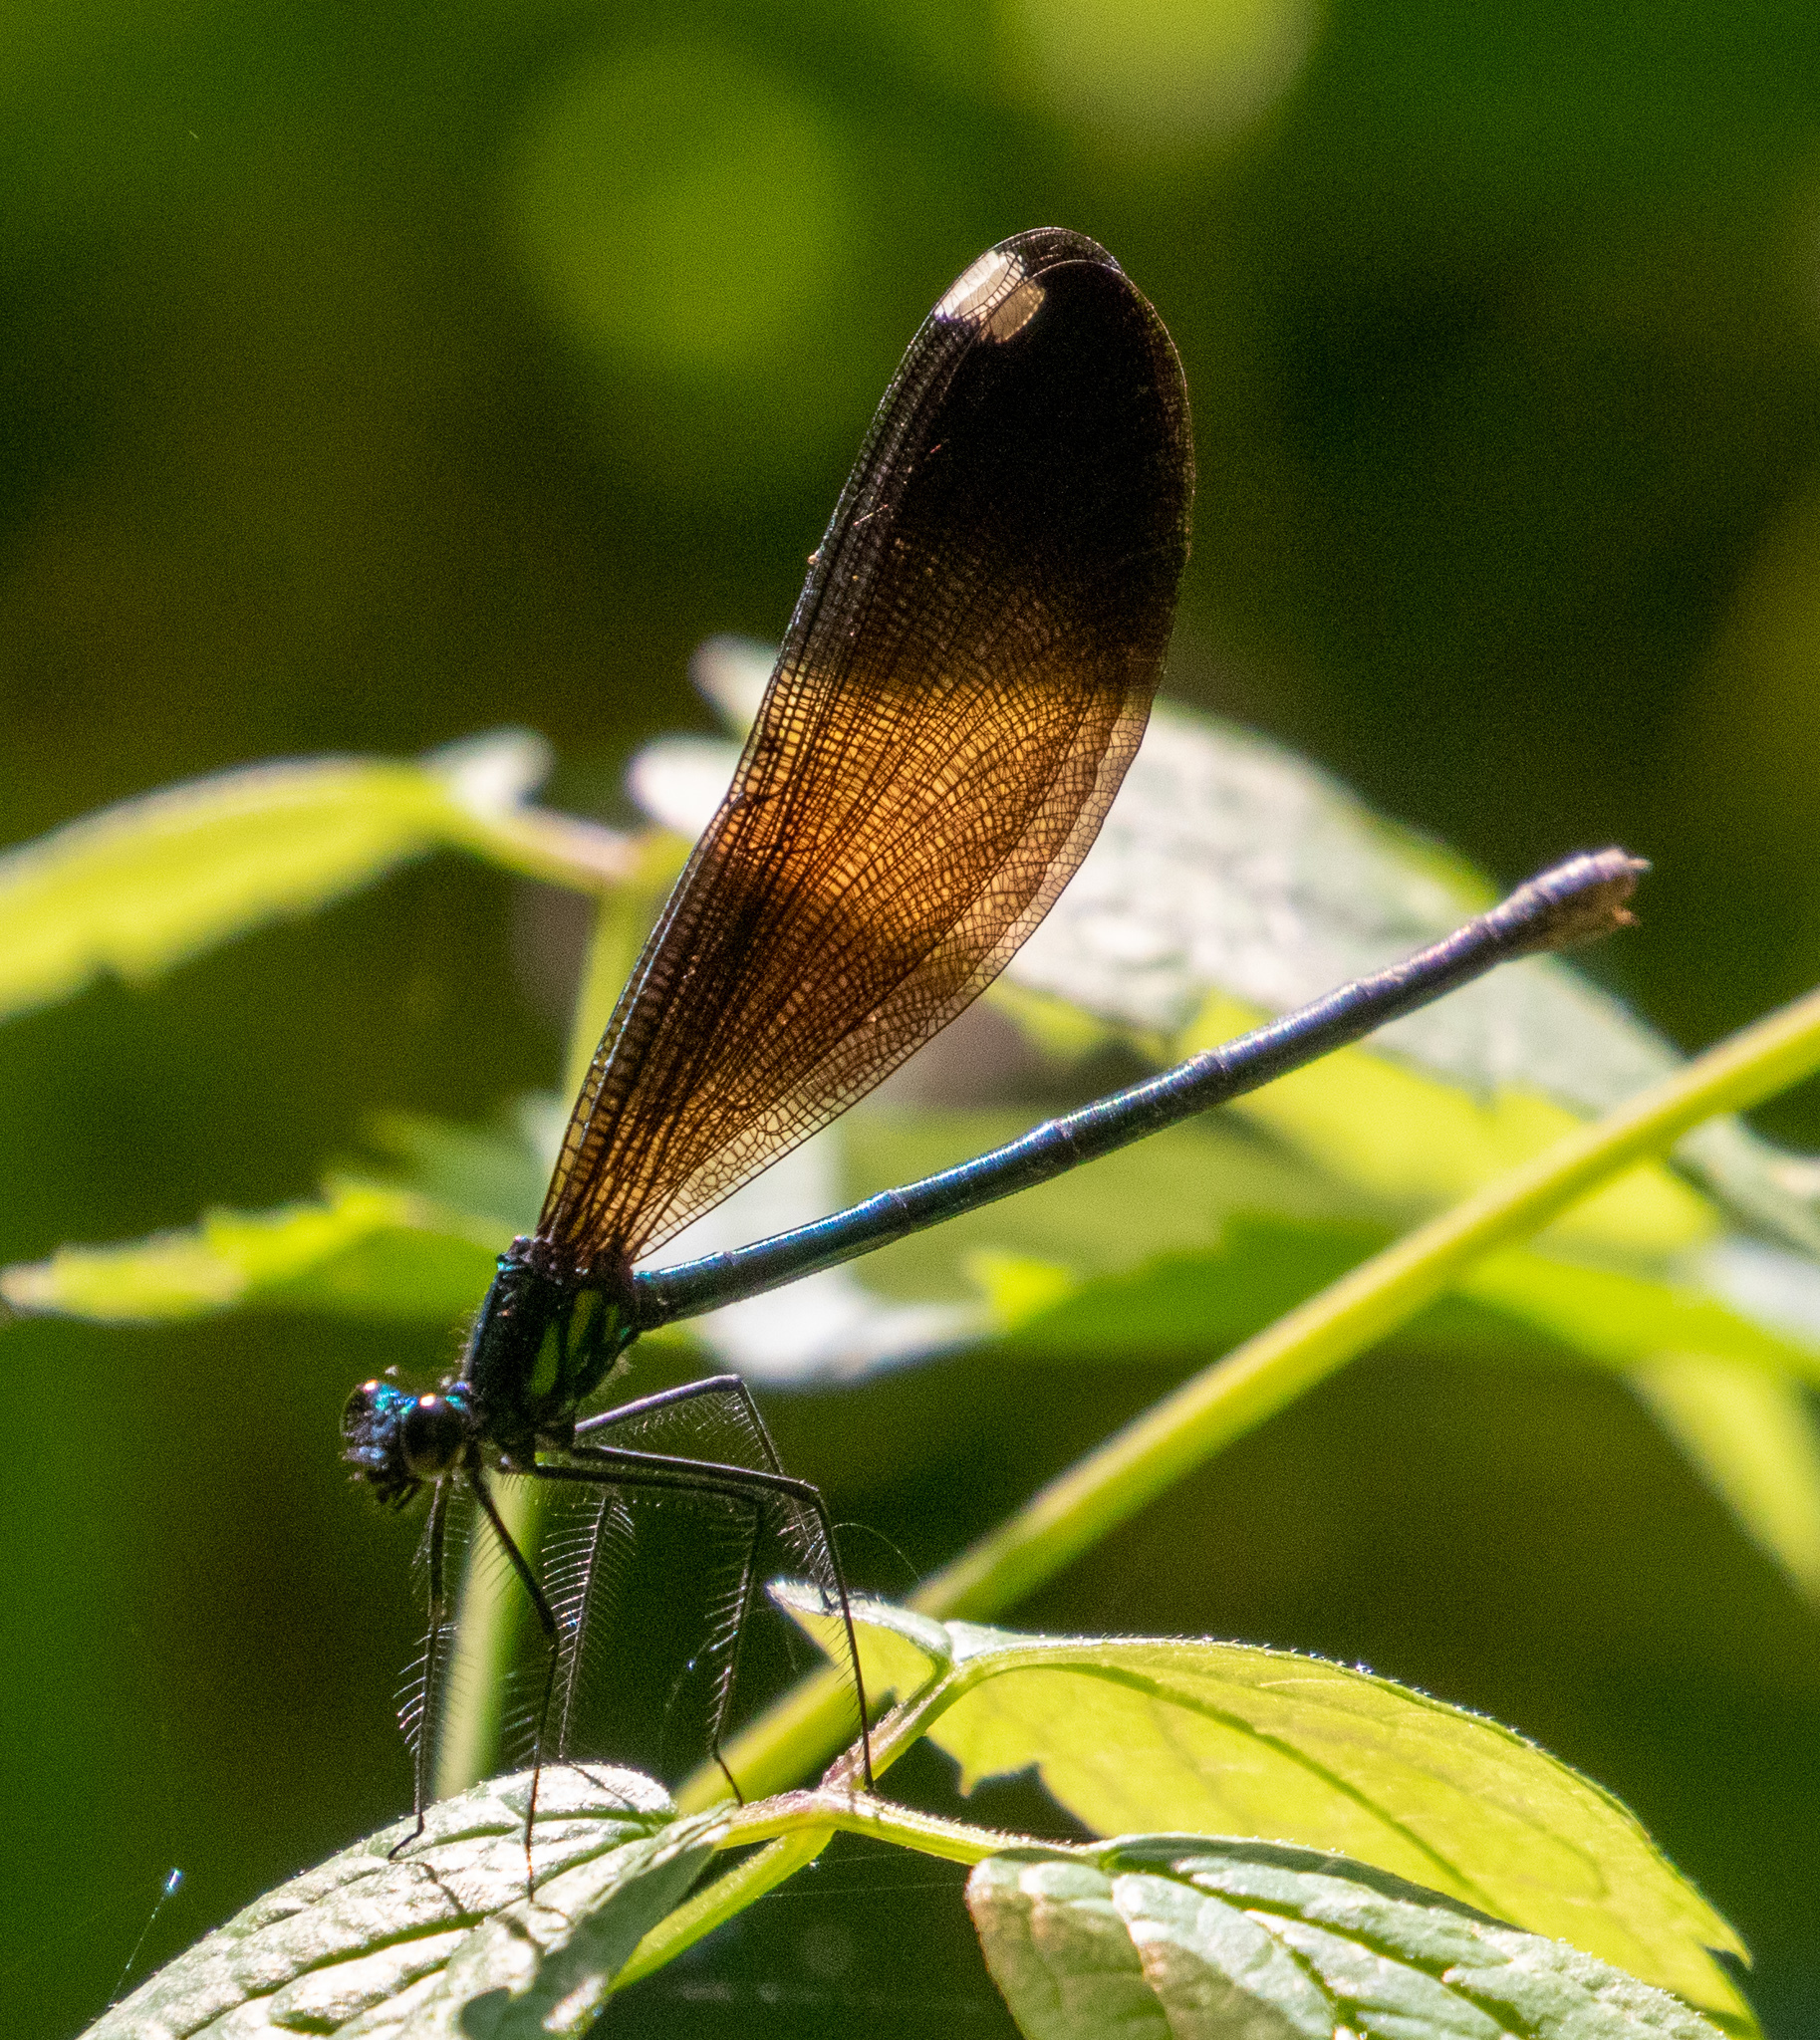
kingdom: Animalia
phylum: Arthropoda
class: Insecta
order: Odonata
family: Calopterygidae
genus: Calopteryx
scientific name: Calopteryx maculata
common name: Ebony jewelwing
